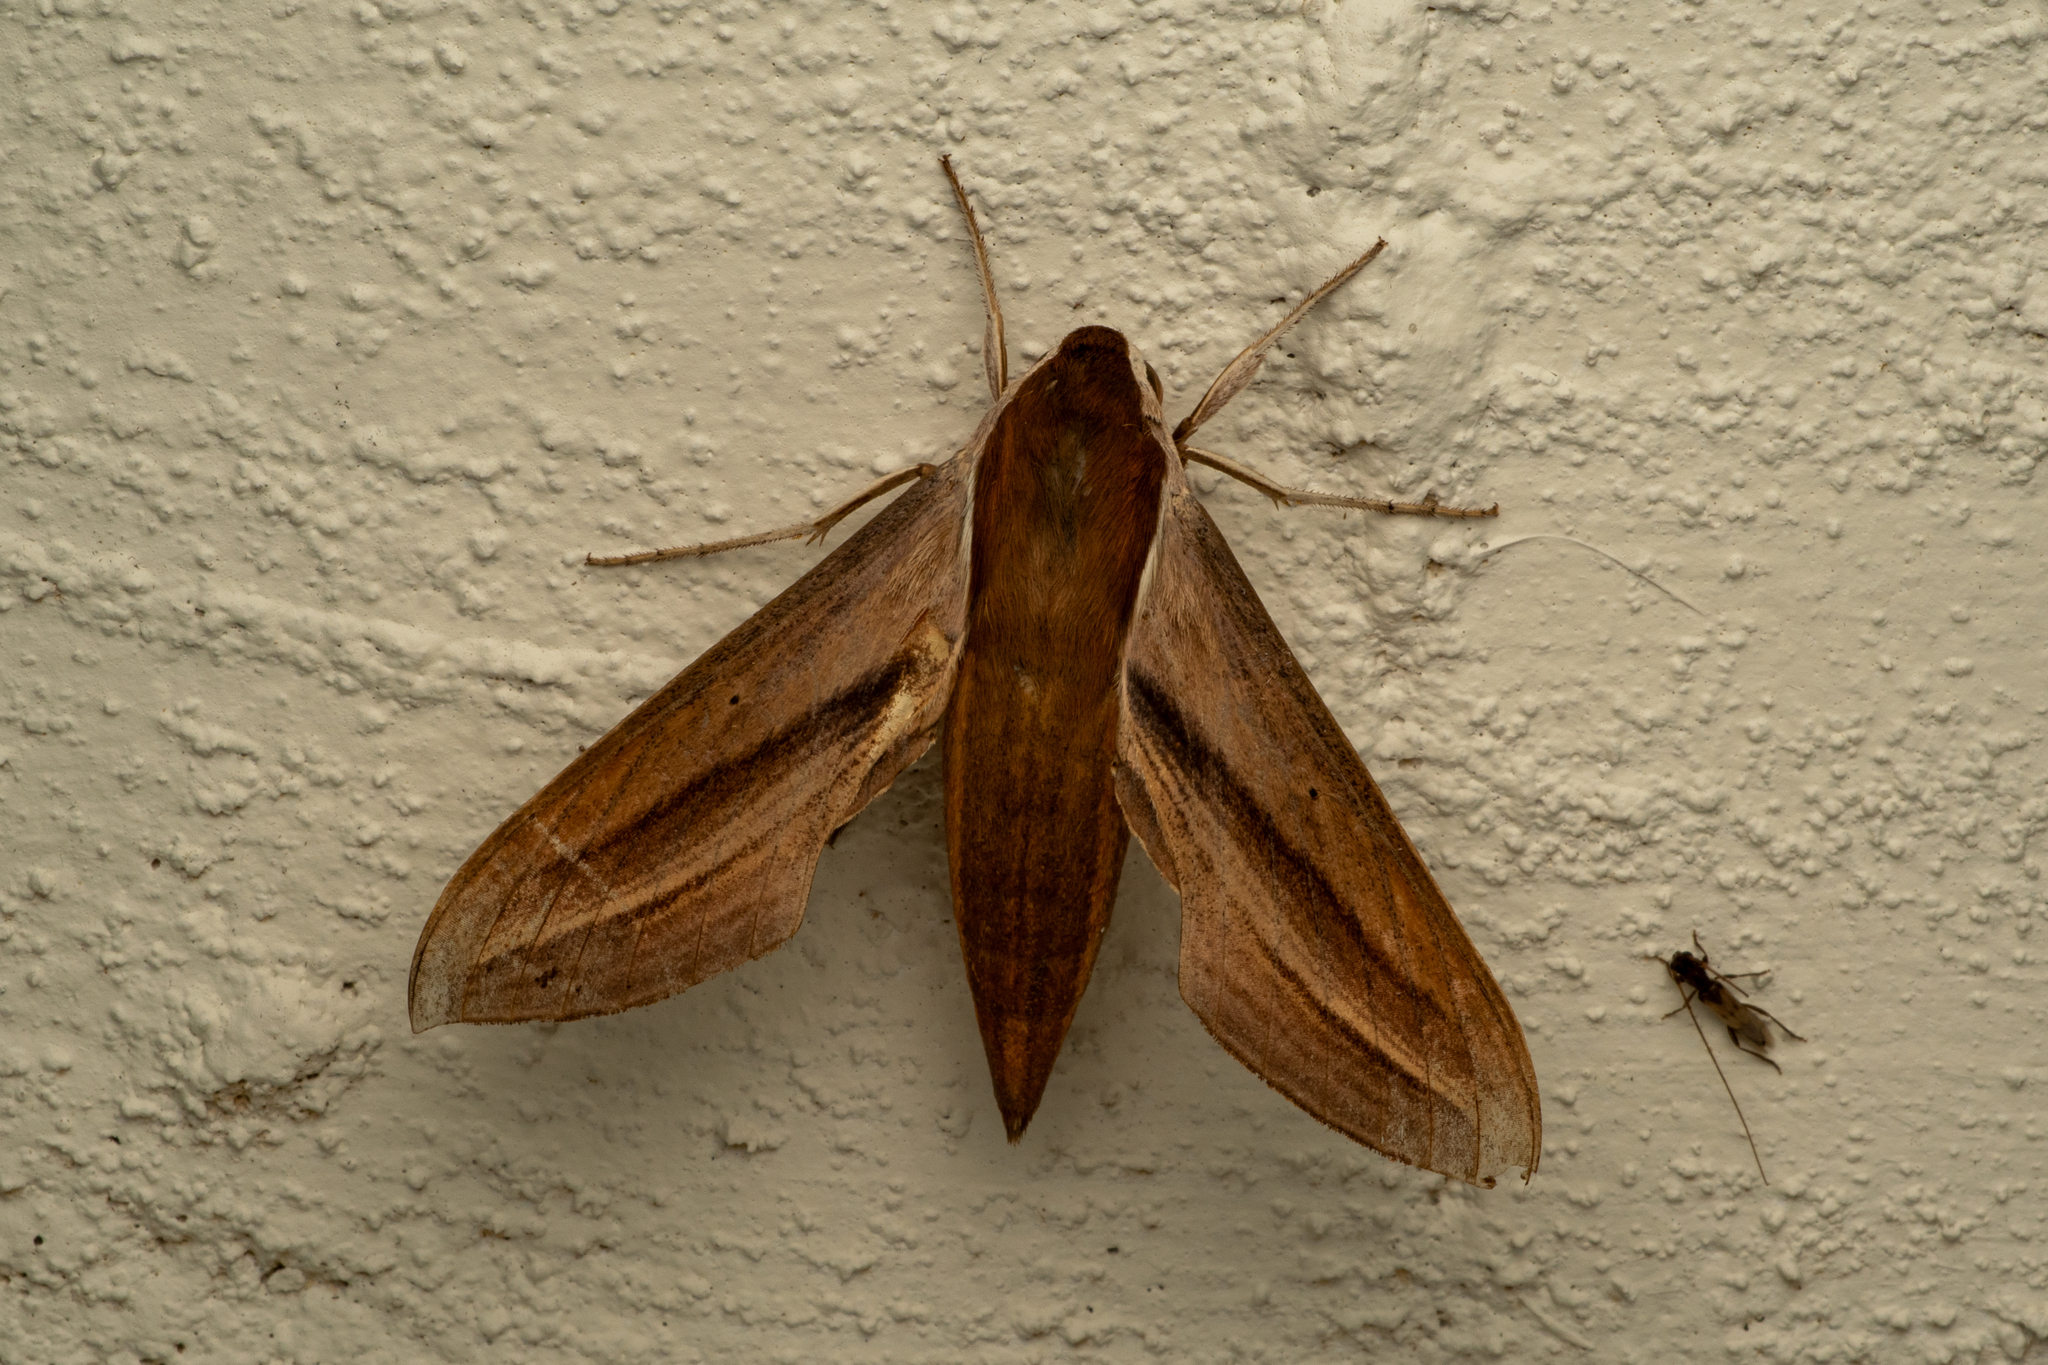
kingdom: Animalia
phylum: Arthropoda
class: Insecta
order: Lepidoptera
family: Sphingidae
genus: Xylophanes
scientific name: Xylophanes tersa
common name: Tersa sphinx
